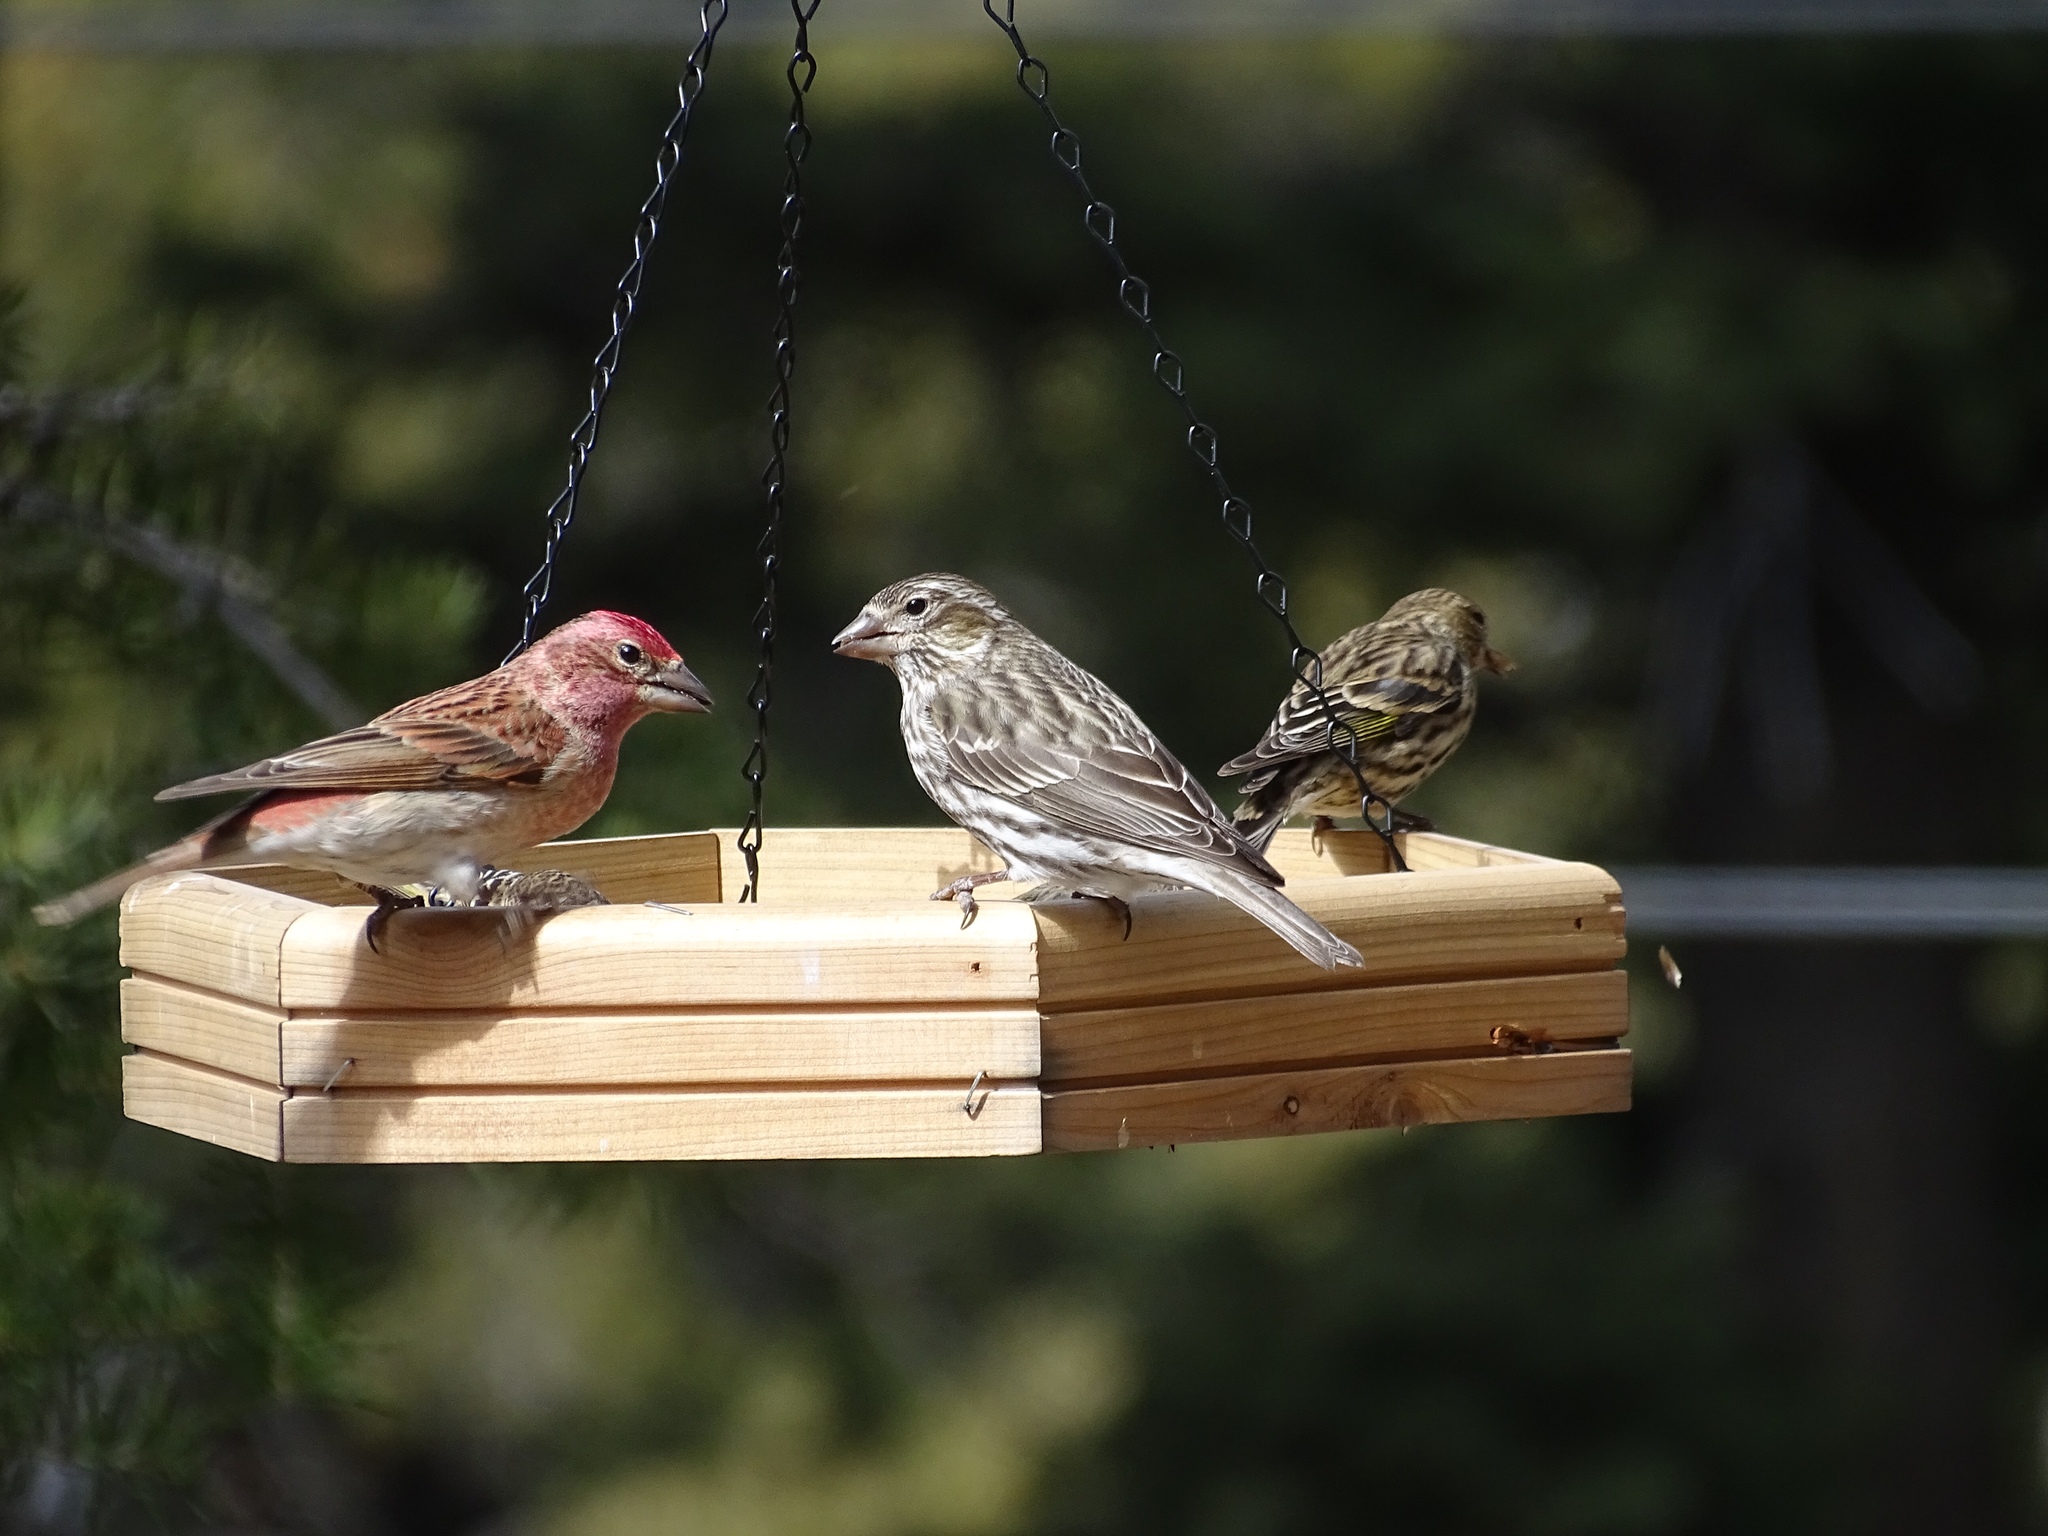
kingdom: Animalia
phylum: Chordata
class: Aves
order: Passeriformes
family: Fringillidae
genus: Haemorhous
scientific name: Haemorhous cassinii
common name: Cassin's finch
